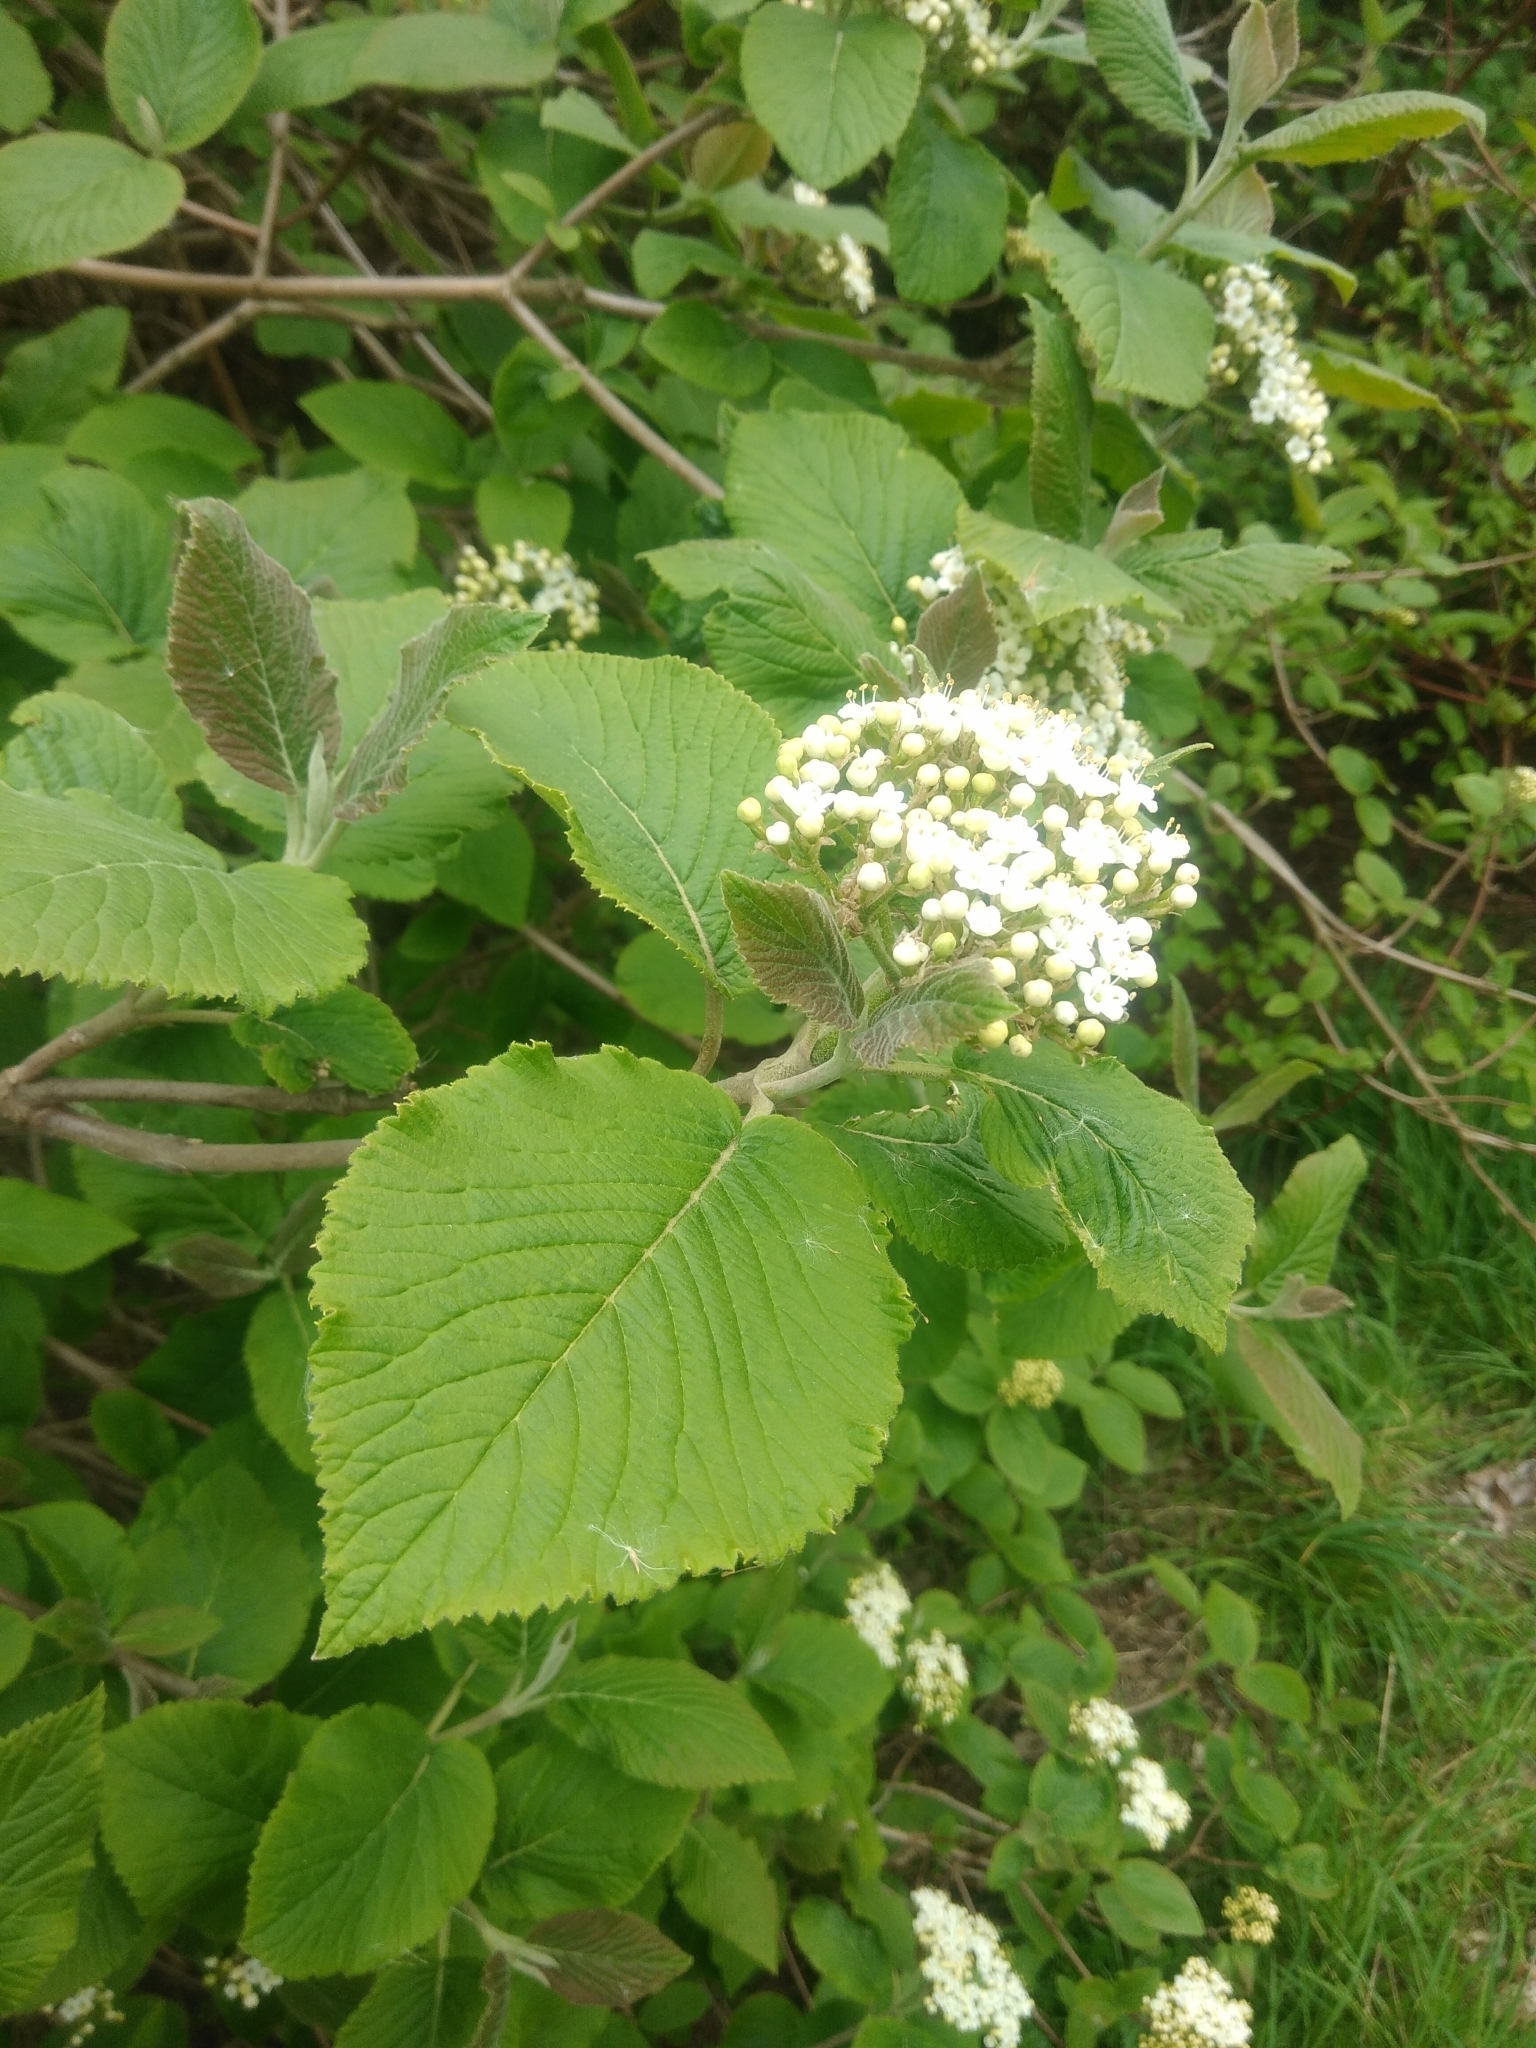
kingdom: Plantae
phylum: Tracheophyta
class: Magnoliopsida
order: Dipsacales
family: Viburnaceae
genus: Viburnum
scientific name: Viburnum lantana
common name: Wayfaring tree
